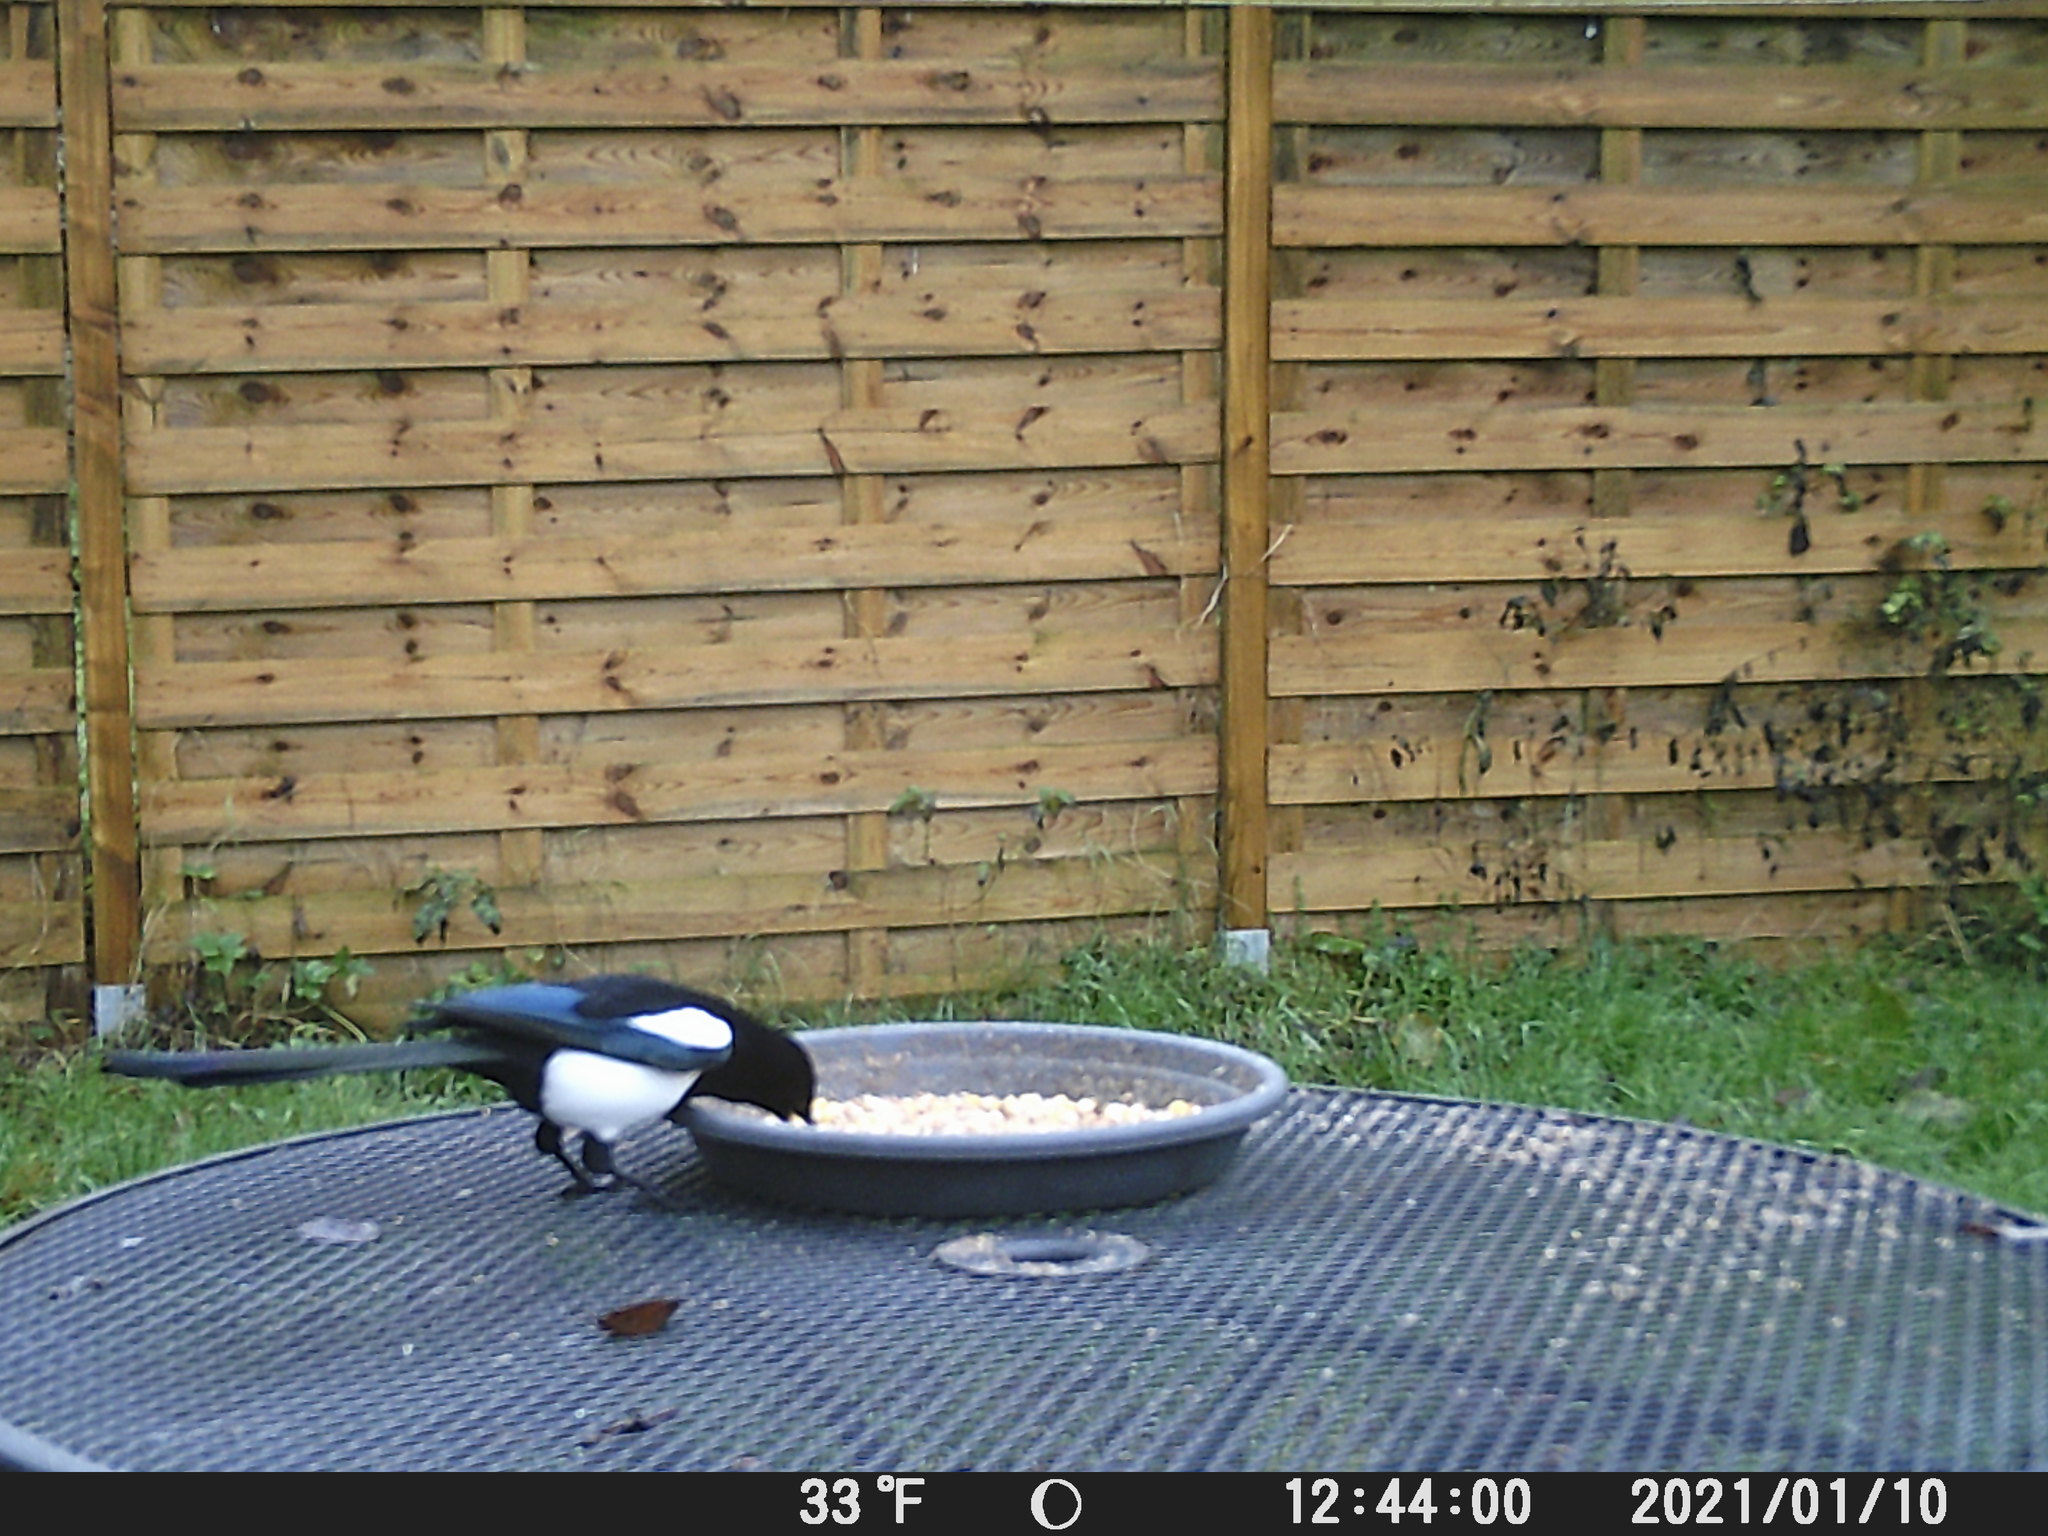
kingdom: Animalia
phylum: Chordata
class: Aves
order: Passeriformes
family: Corvidae
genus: Pica
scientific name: Pica pica
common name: Eurasian magpie
